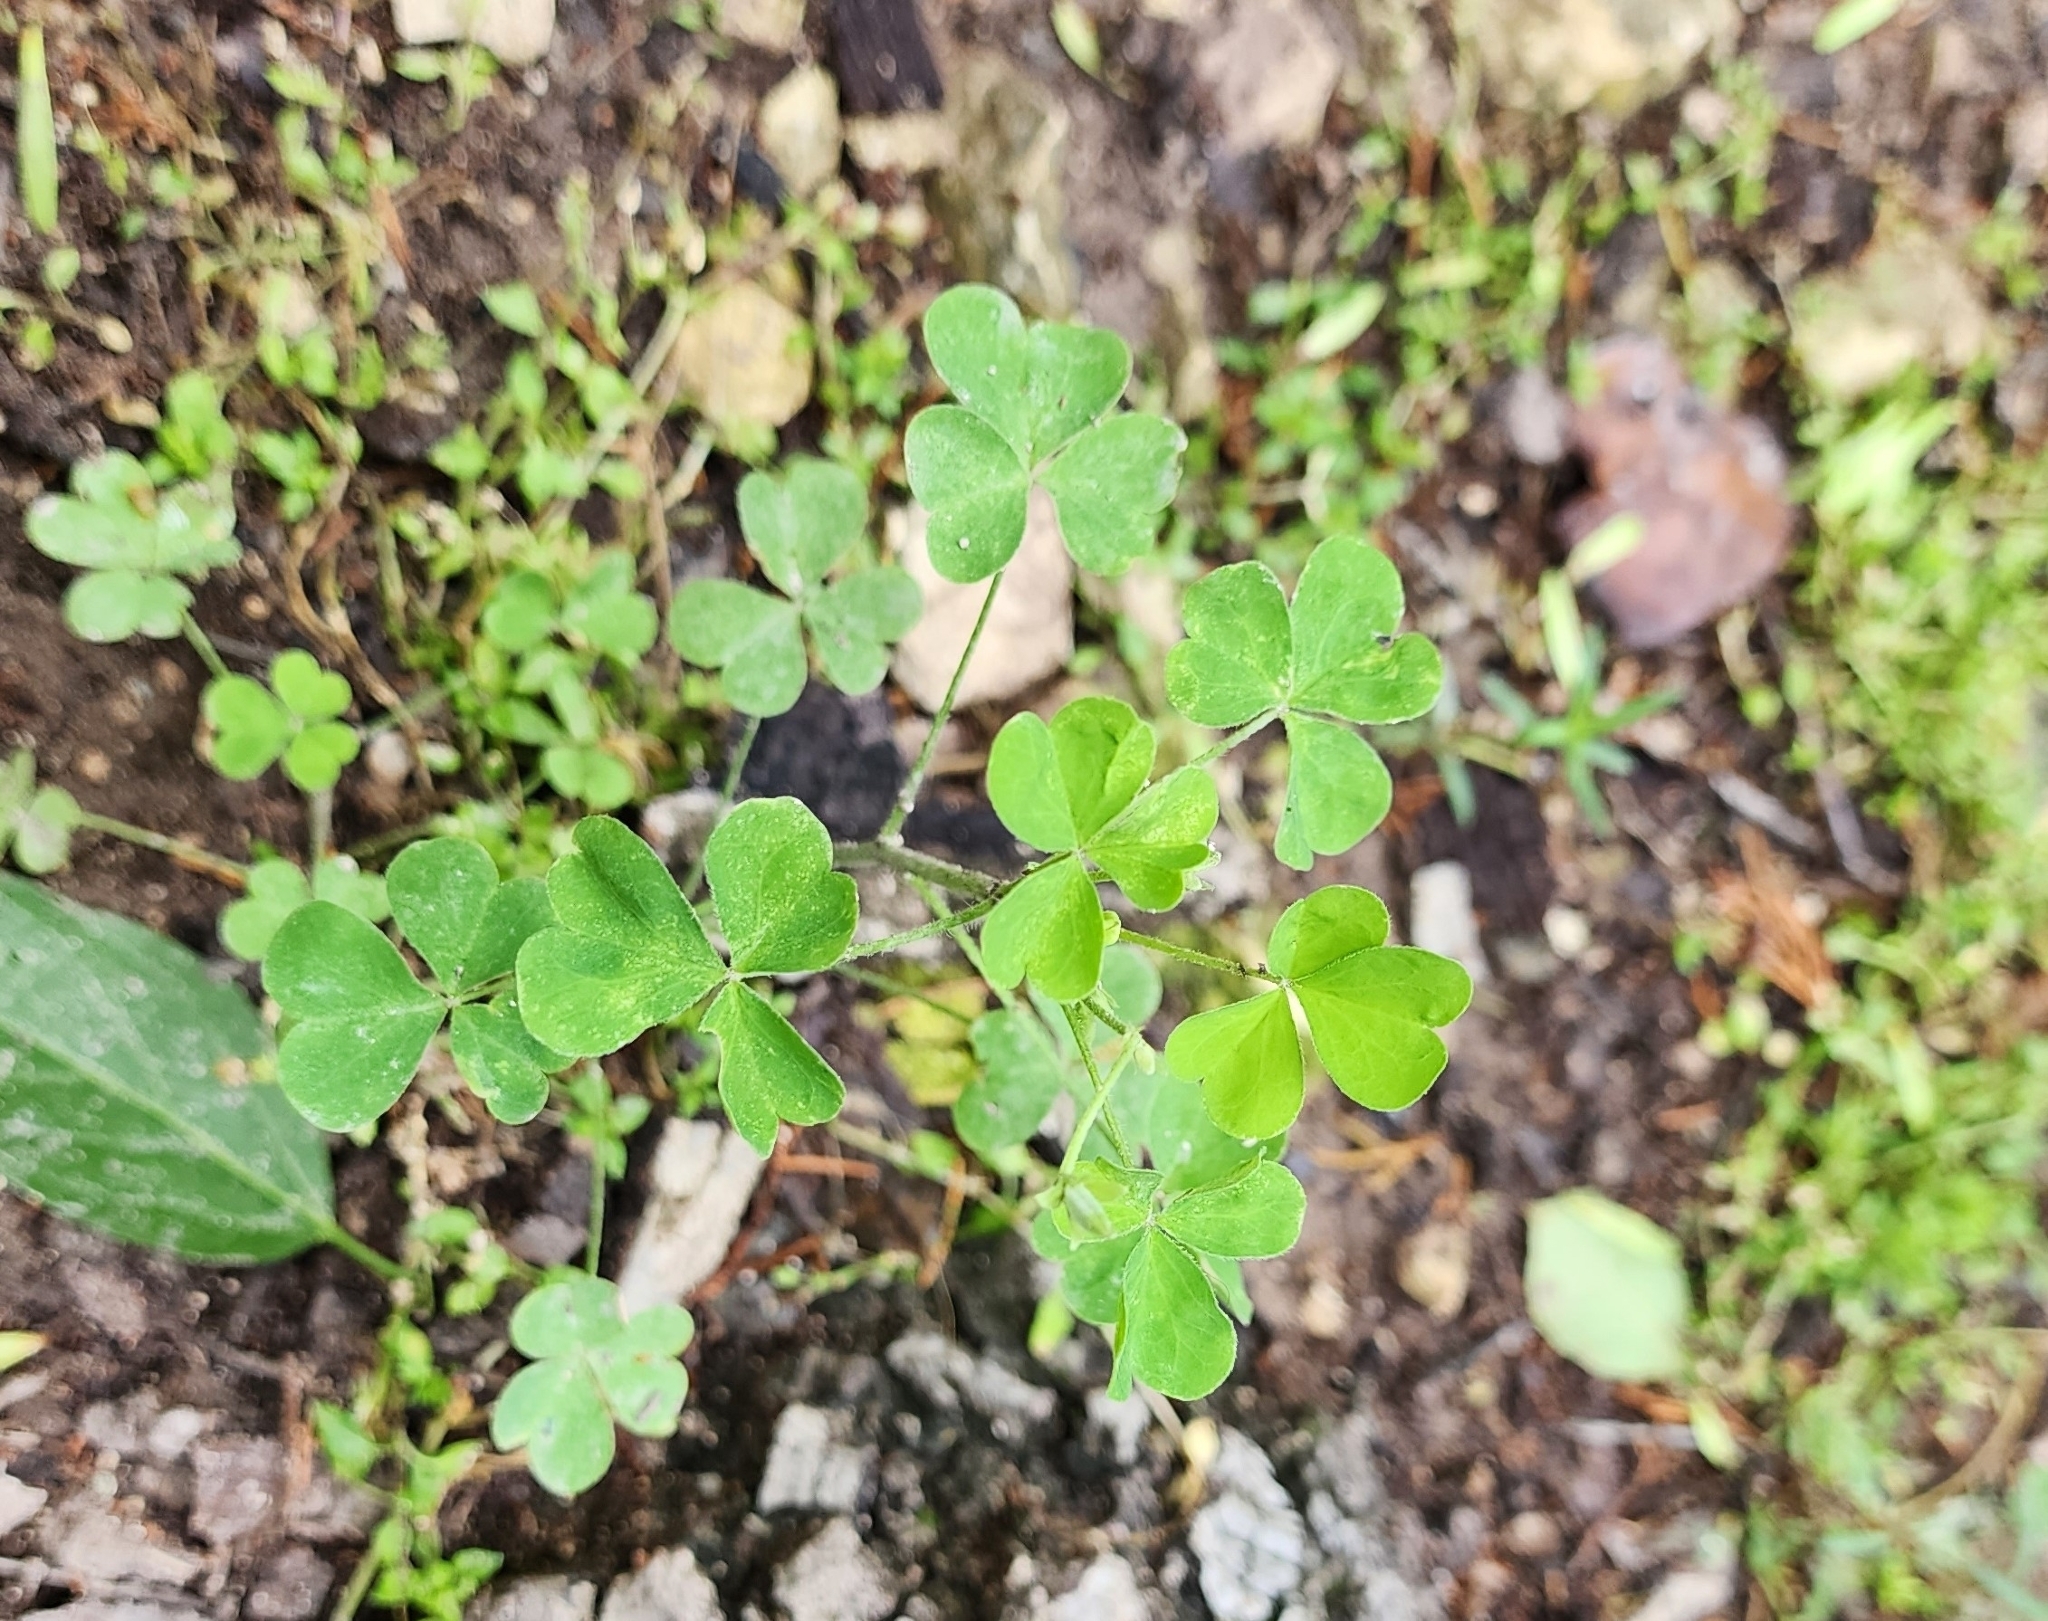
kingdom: Plantae
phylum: Tracheophyta
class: Magnoliopsida
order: Oxalidales
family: Oxalidaceae
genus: Oxalis
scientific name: Oxalis dillenii
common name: Sussex yellow-sorrel
